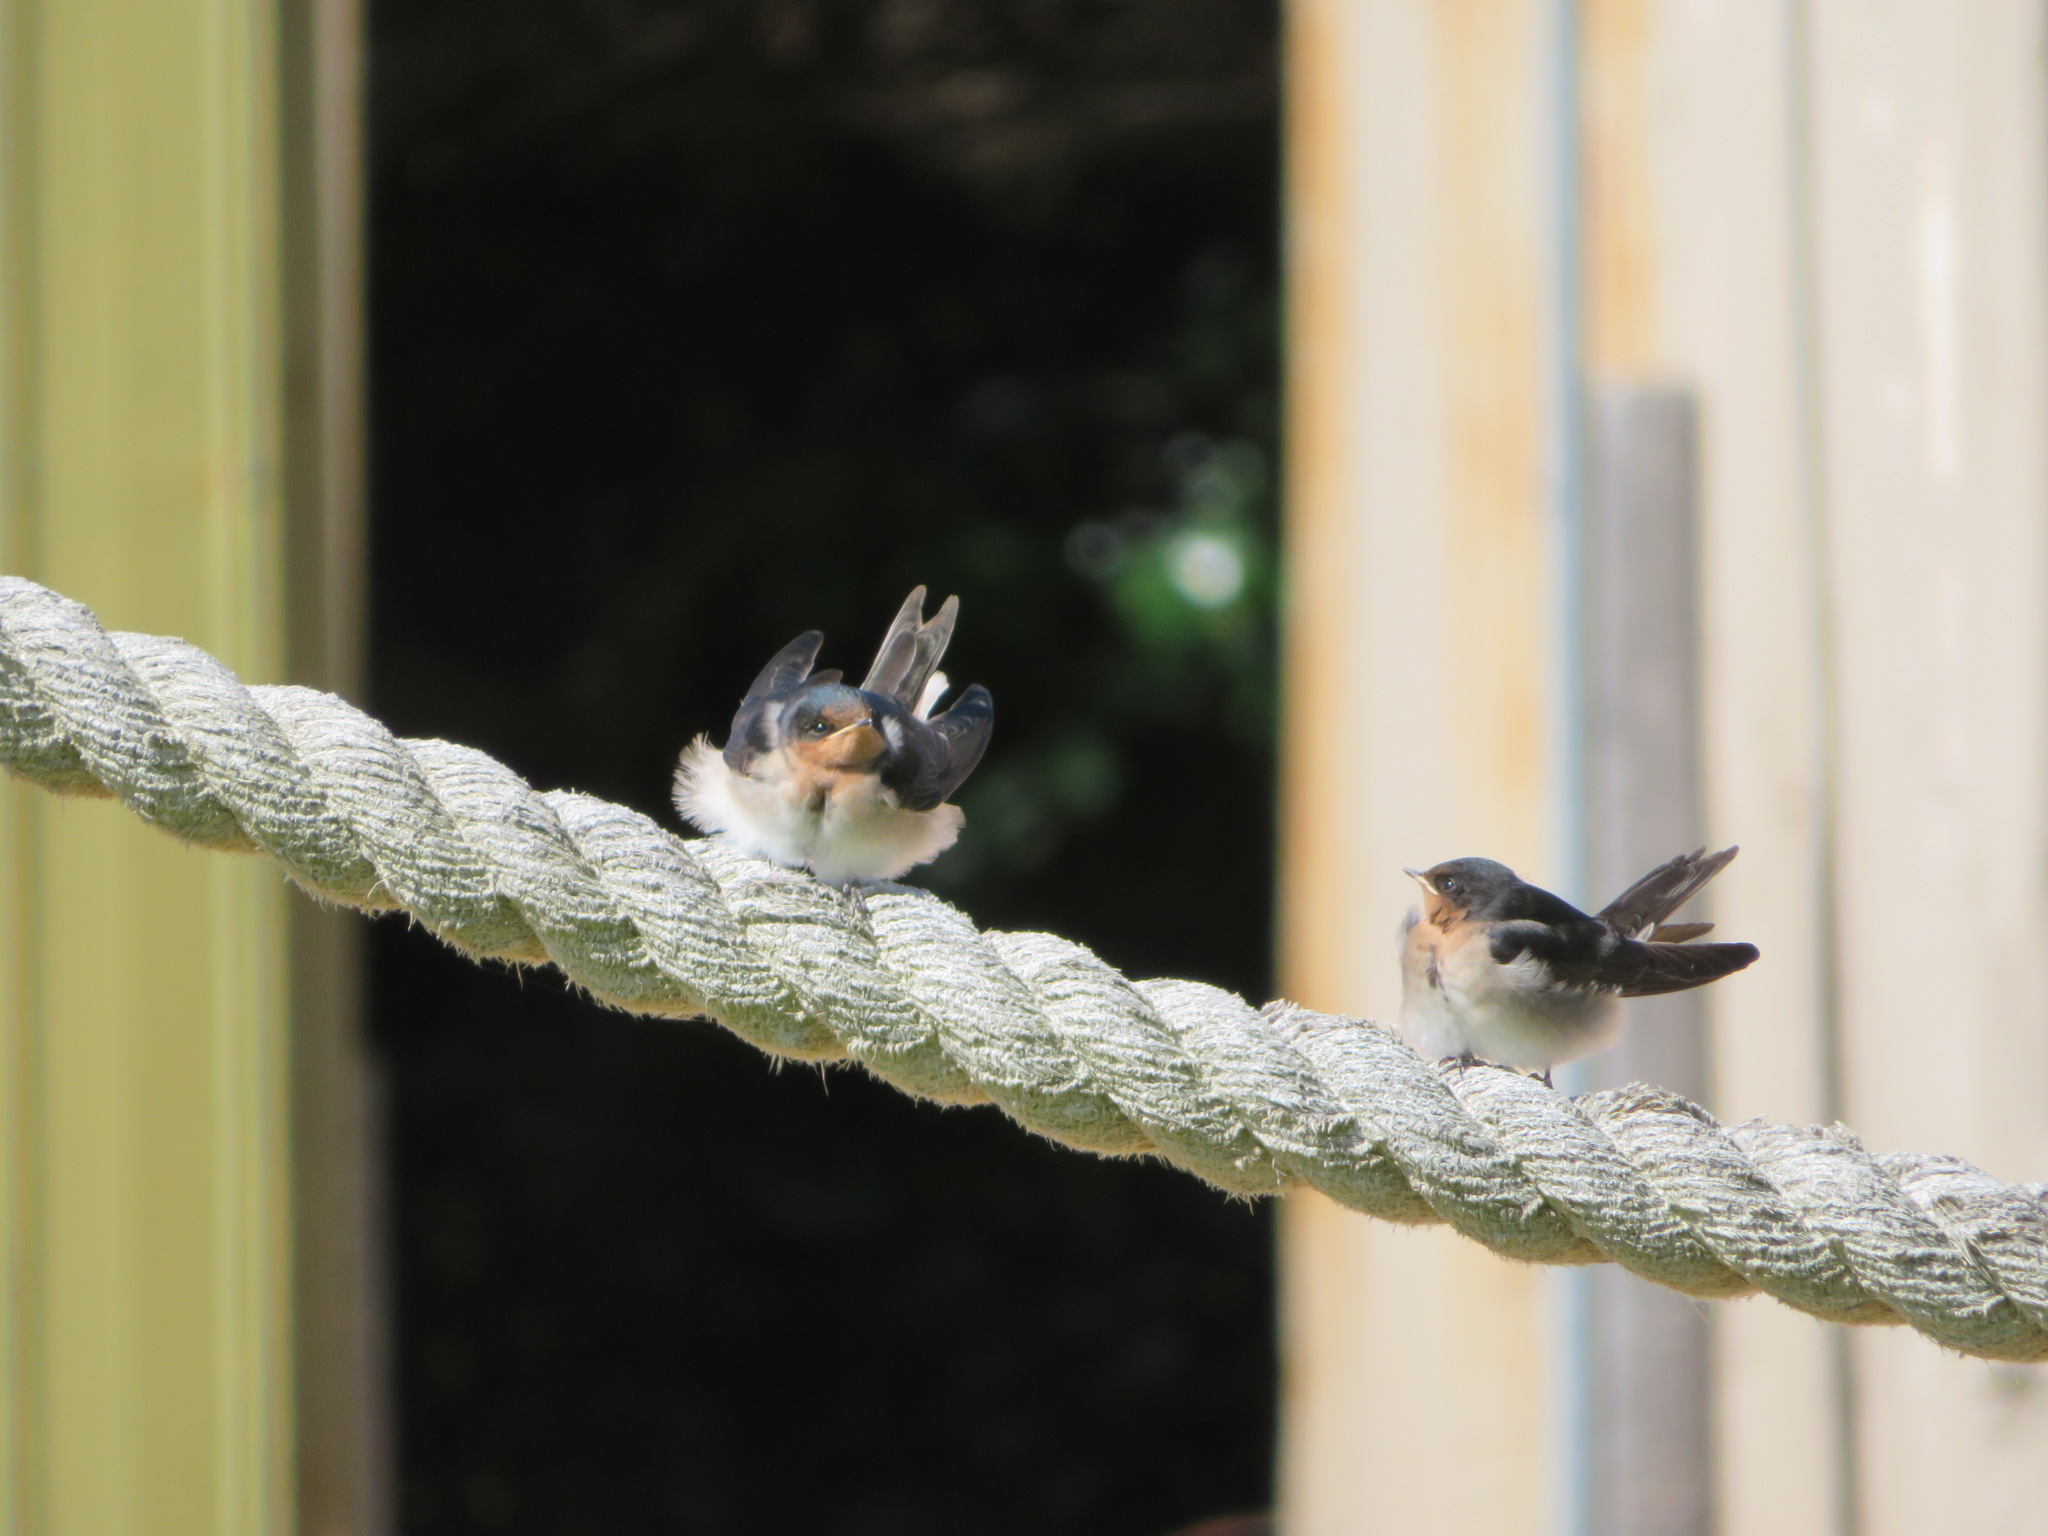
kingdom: Animalia
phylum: Chordata
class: Aves
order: Passeriformes
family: Hirundinidae
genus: Hirundo
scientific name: Hirundo neoxena
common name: Welcome swallow
